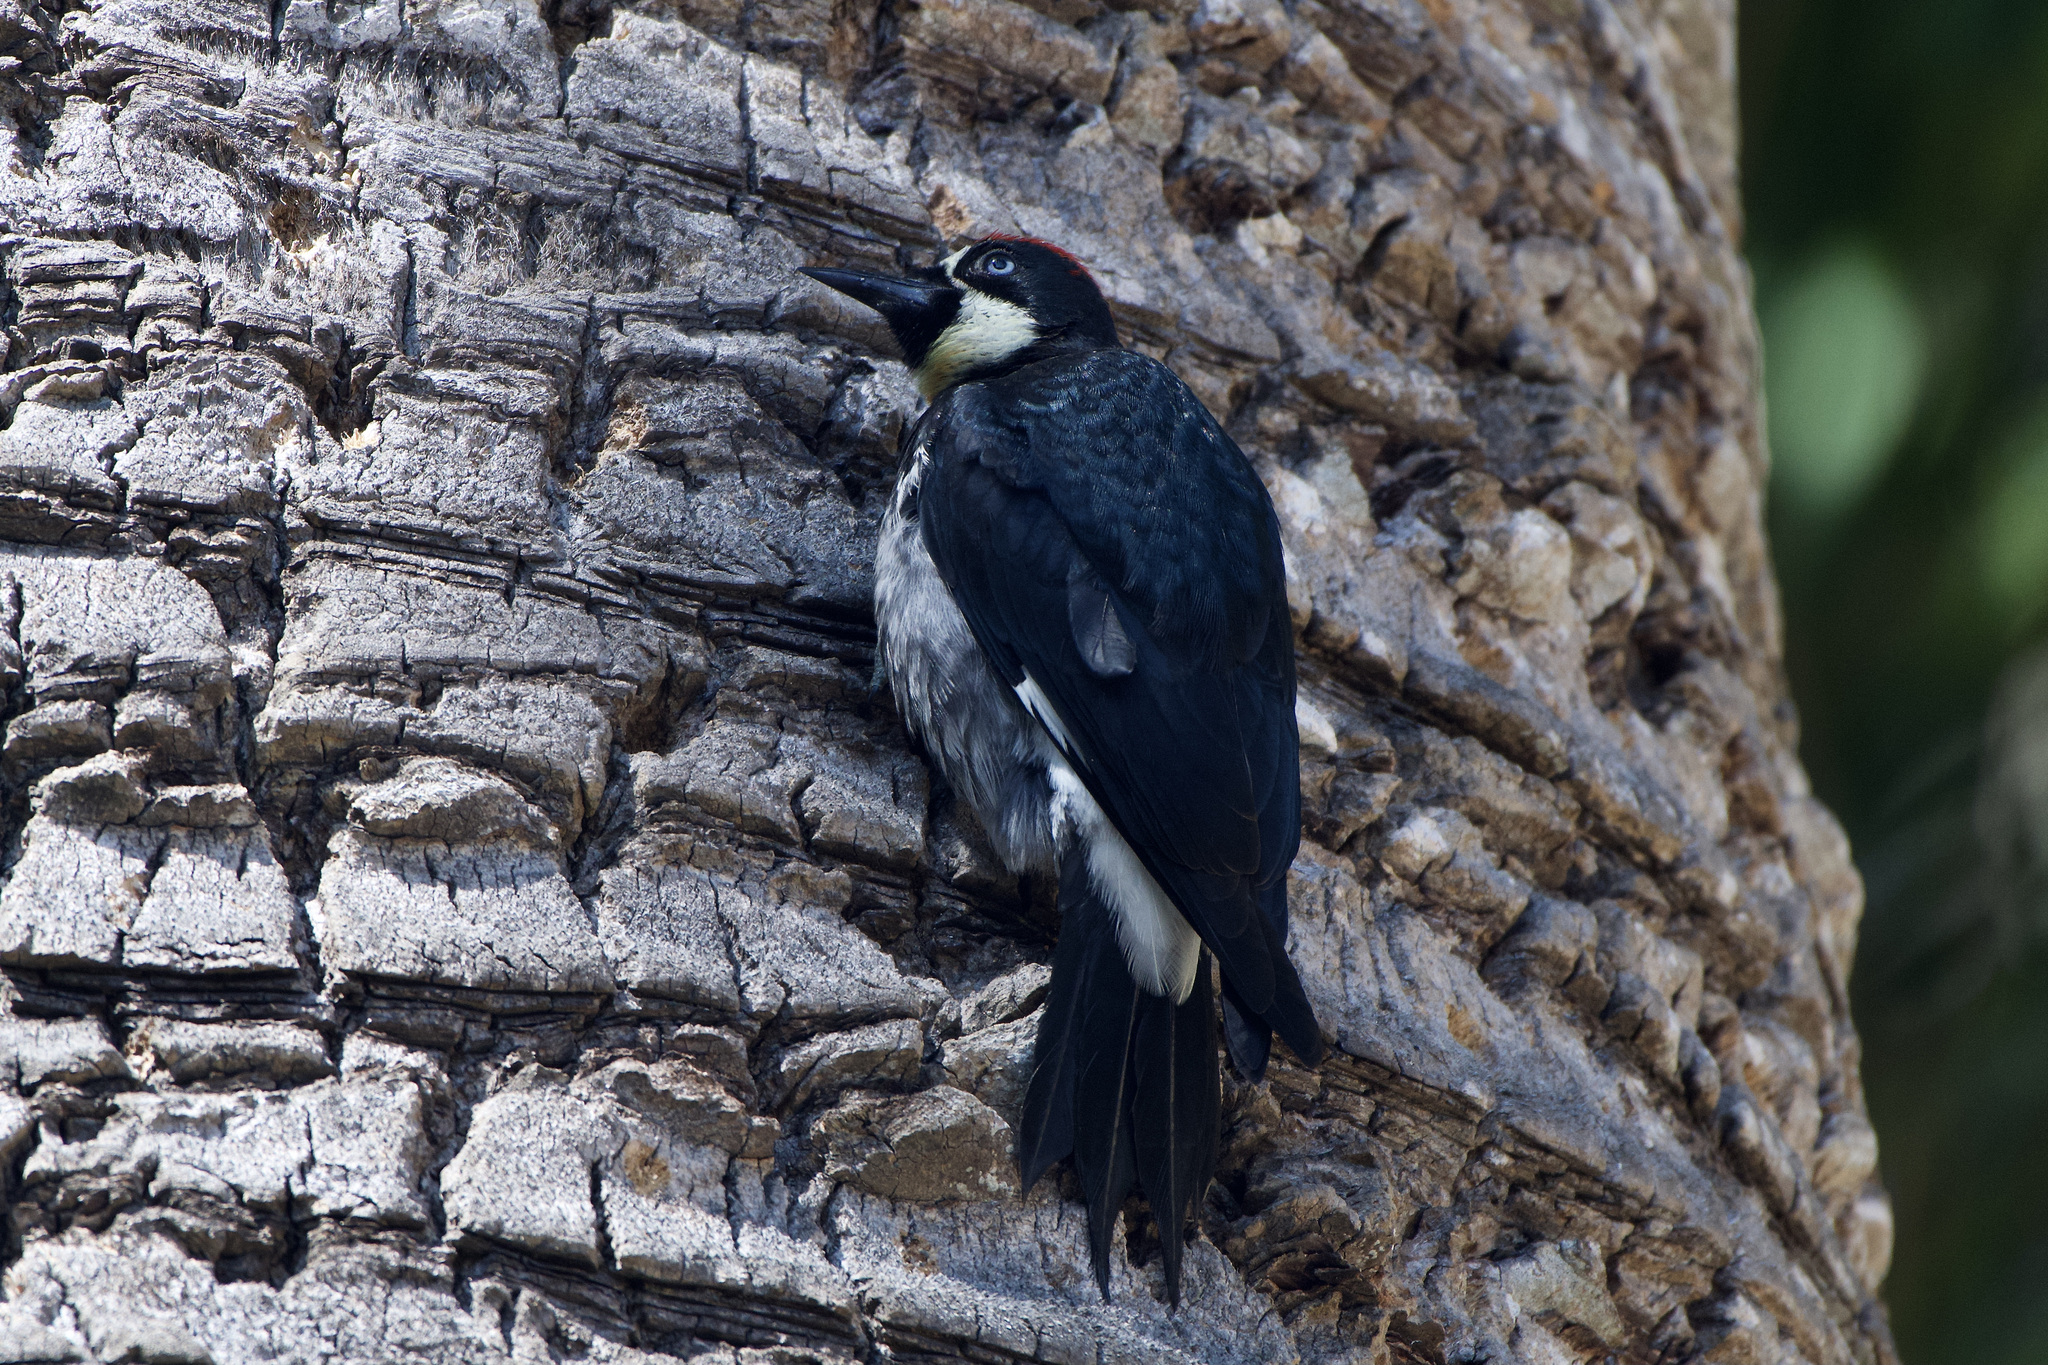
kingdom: Animalia
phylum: Chordata
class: Aves
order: Piciformes
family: Picidae
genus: Melanerpes
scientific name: Melanerpes formicivorus
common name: Acorn woodpecker
